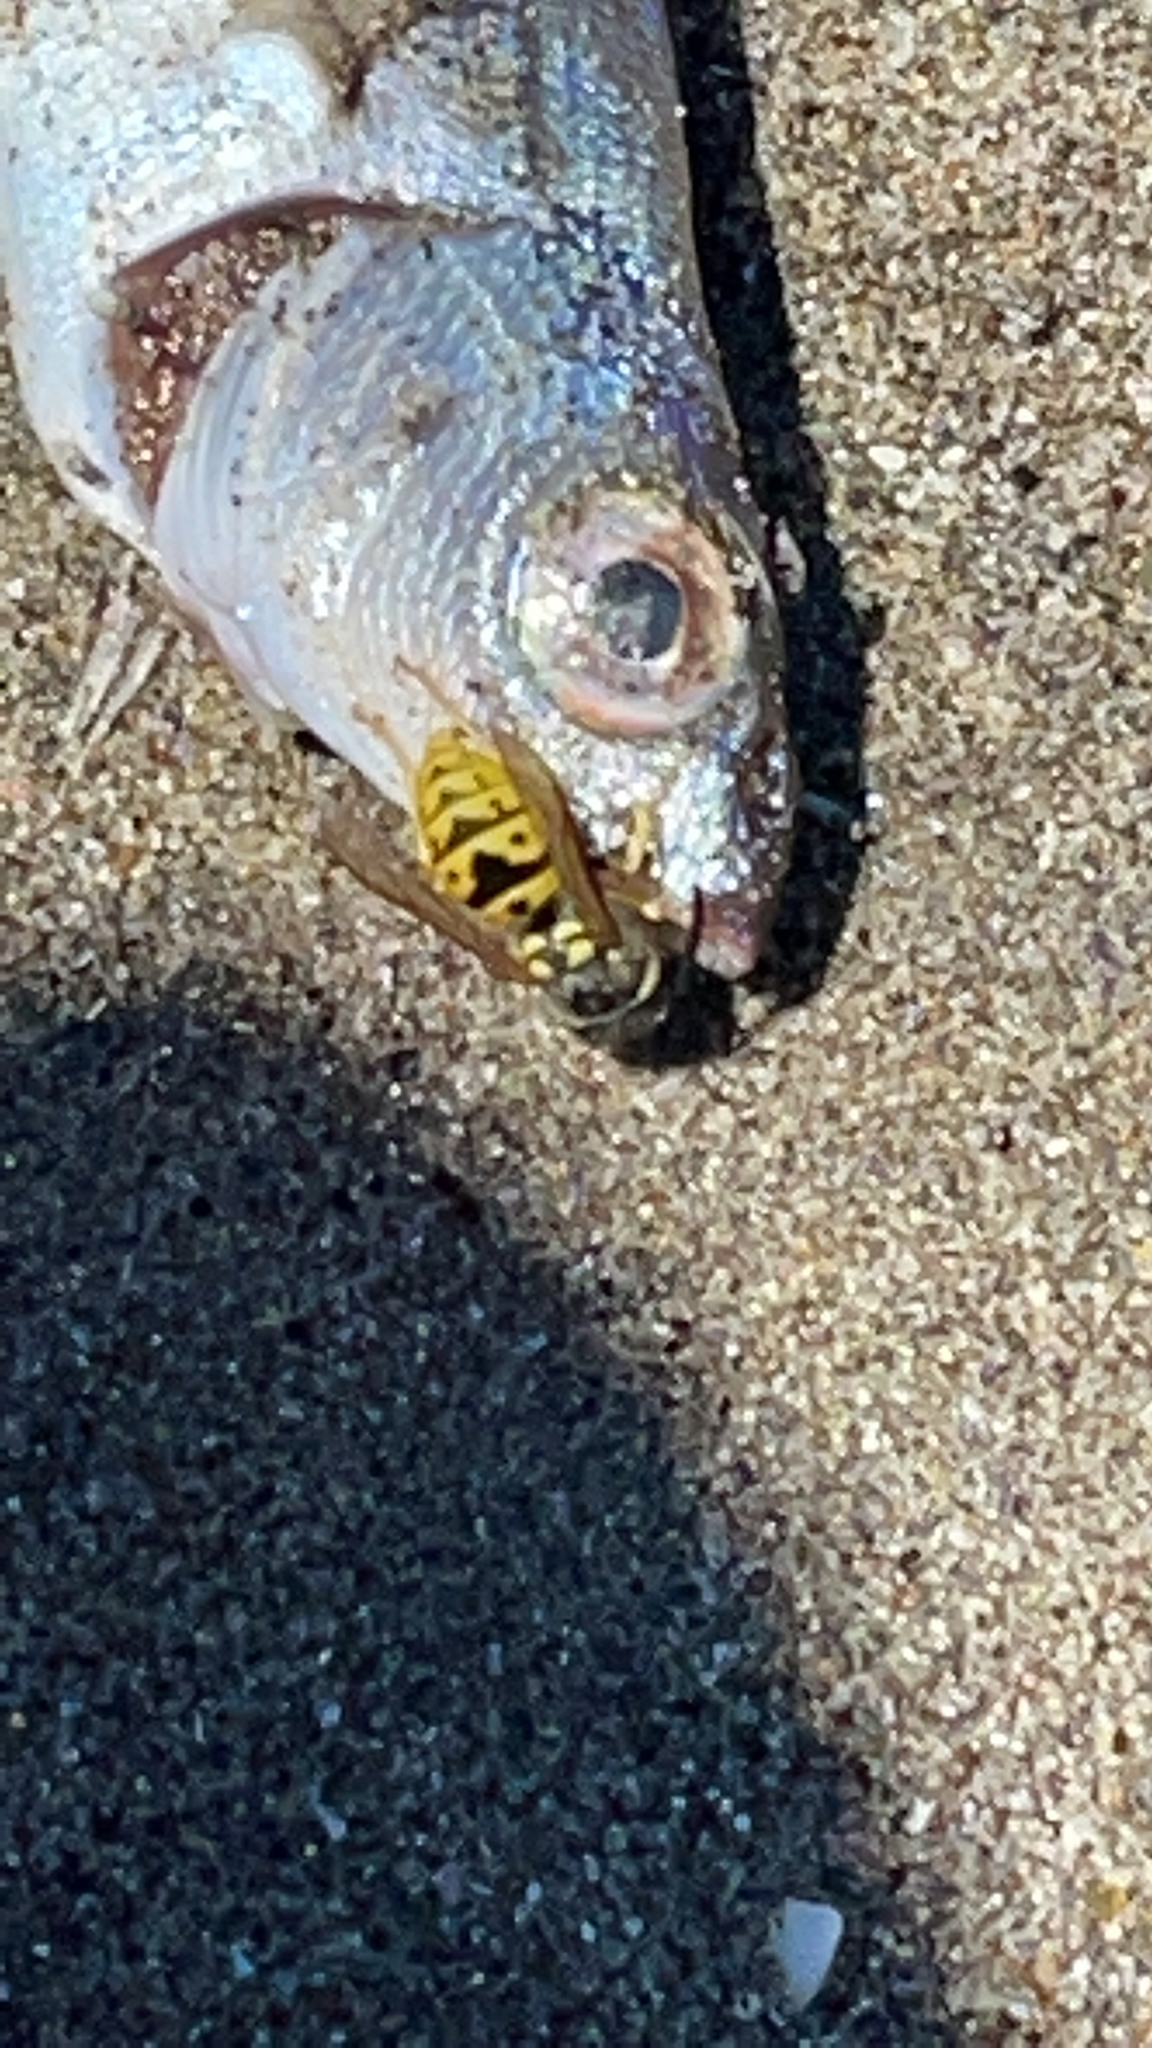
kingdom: Animalia
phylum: Arthropoda
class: Insecta
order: Hymenoptera
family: Vespidae
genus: Vespula
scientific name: Vespula germanica
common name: German wasp
